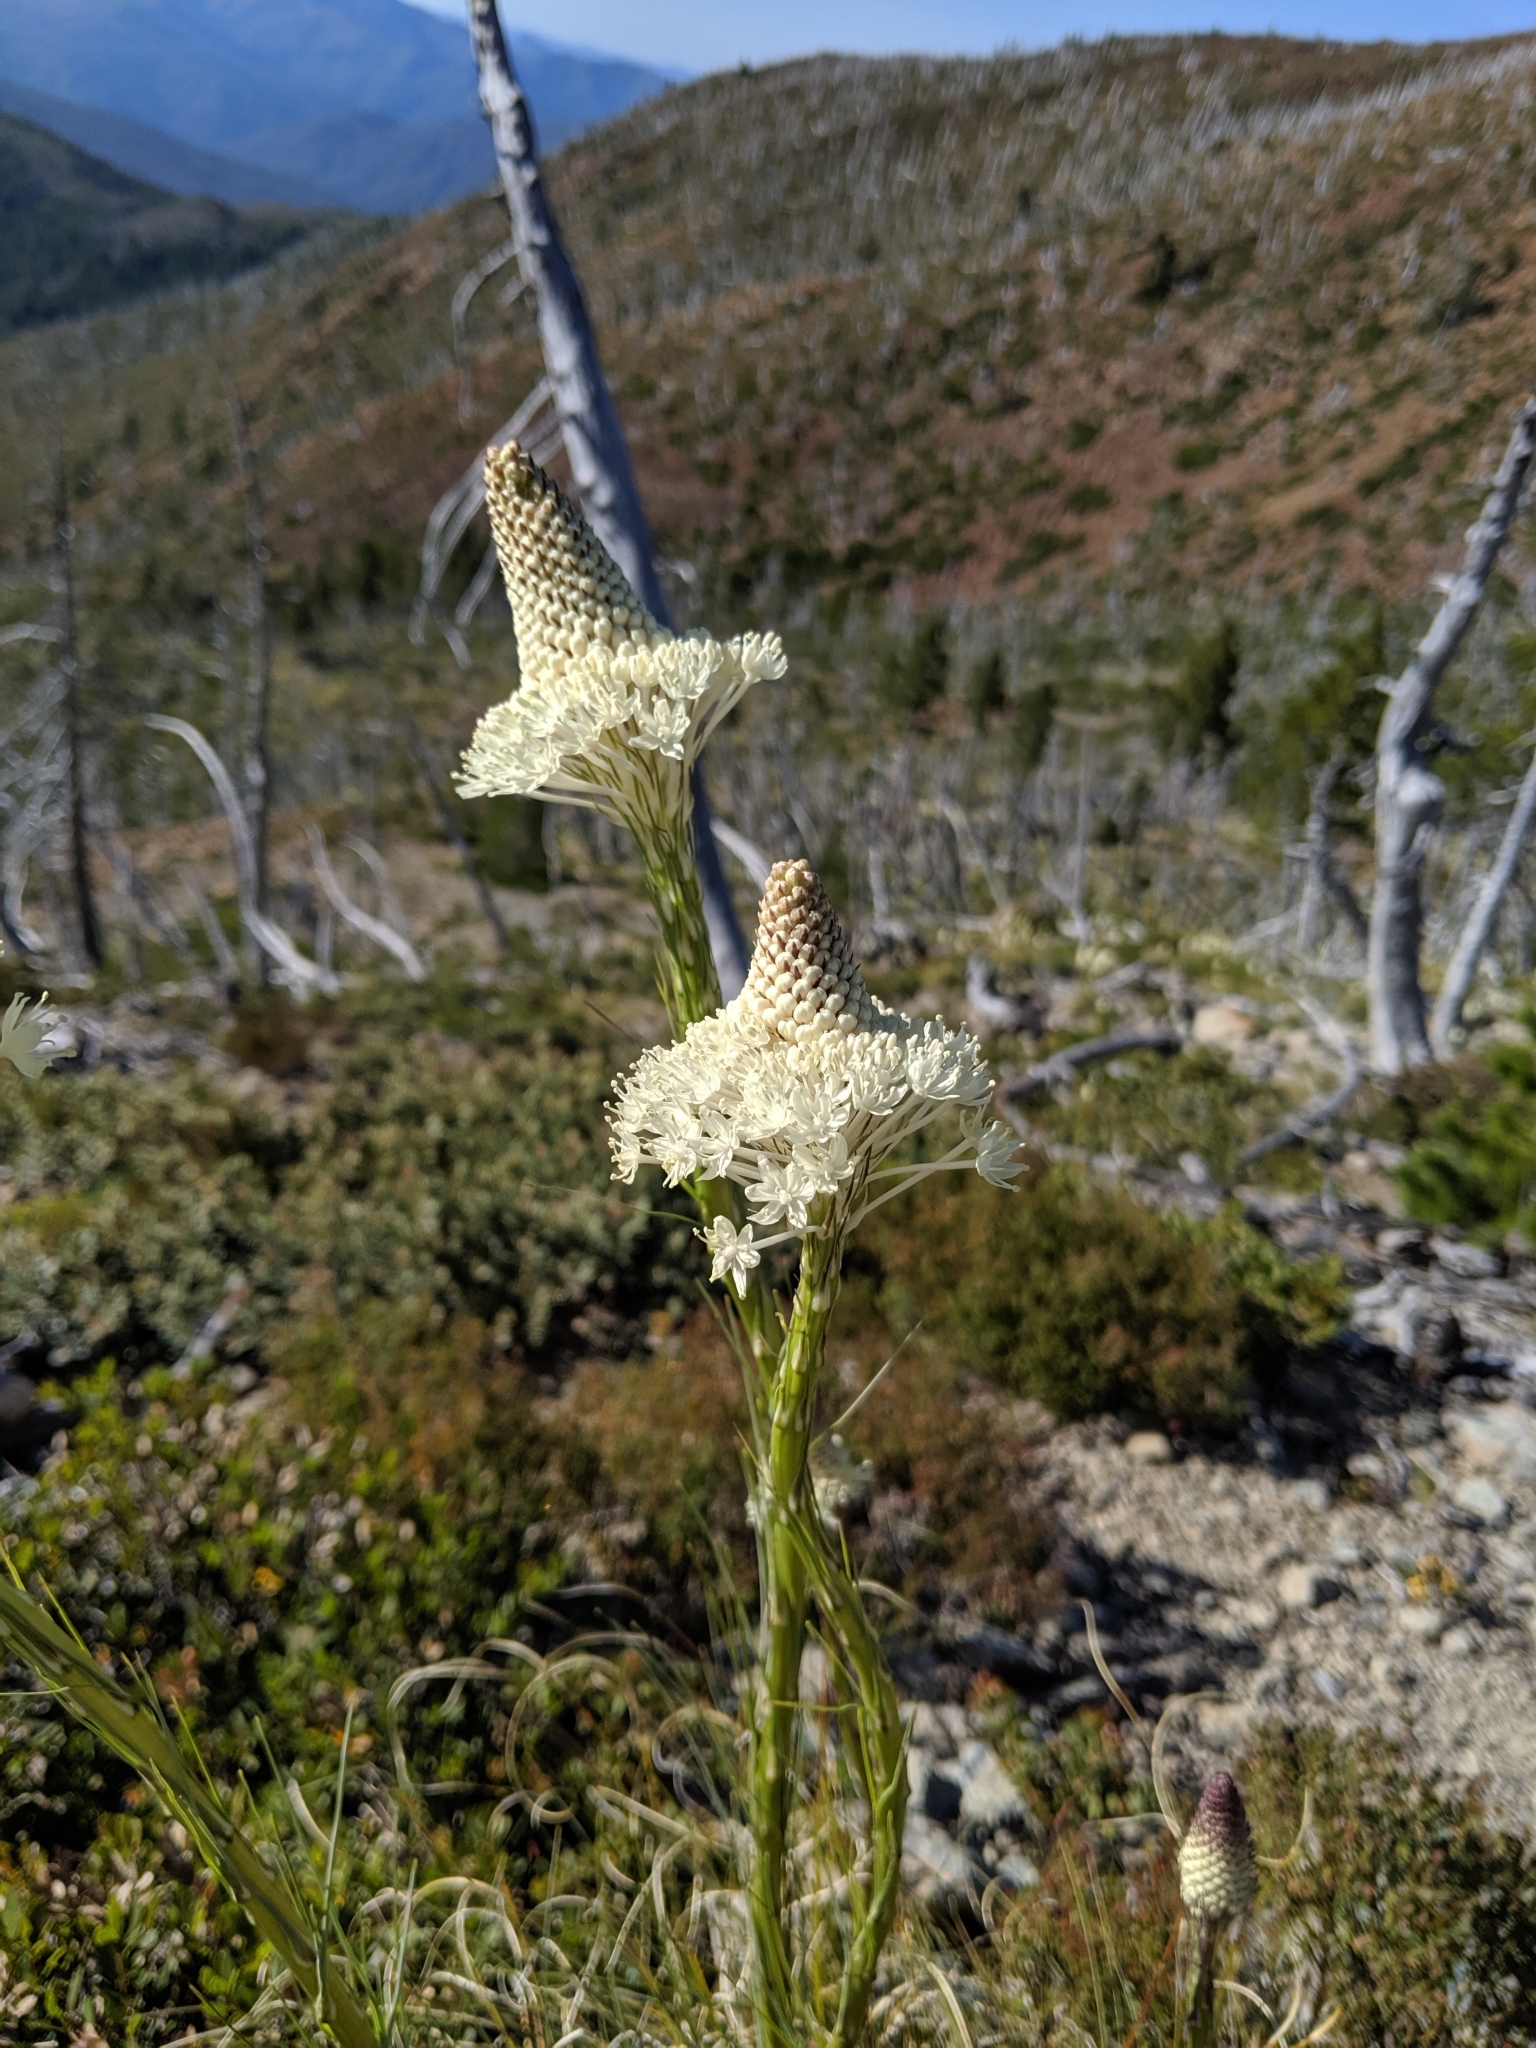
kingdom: Plantae
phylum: Tracheophyta
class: Liliopsida
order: Liliales
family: Melanthiaceae
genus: Xerophyllum
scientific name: Xerophyllum tenax
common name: Bear-grass
